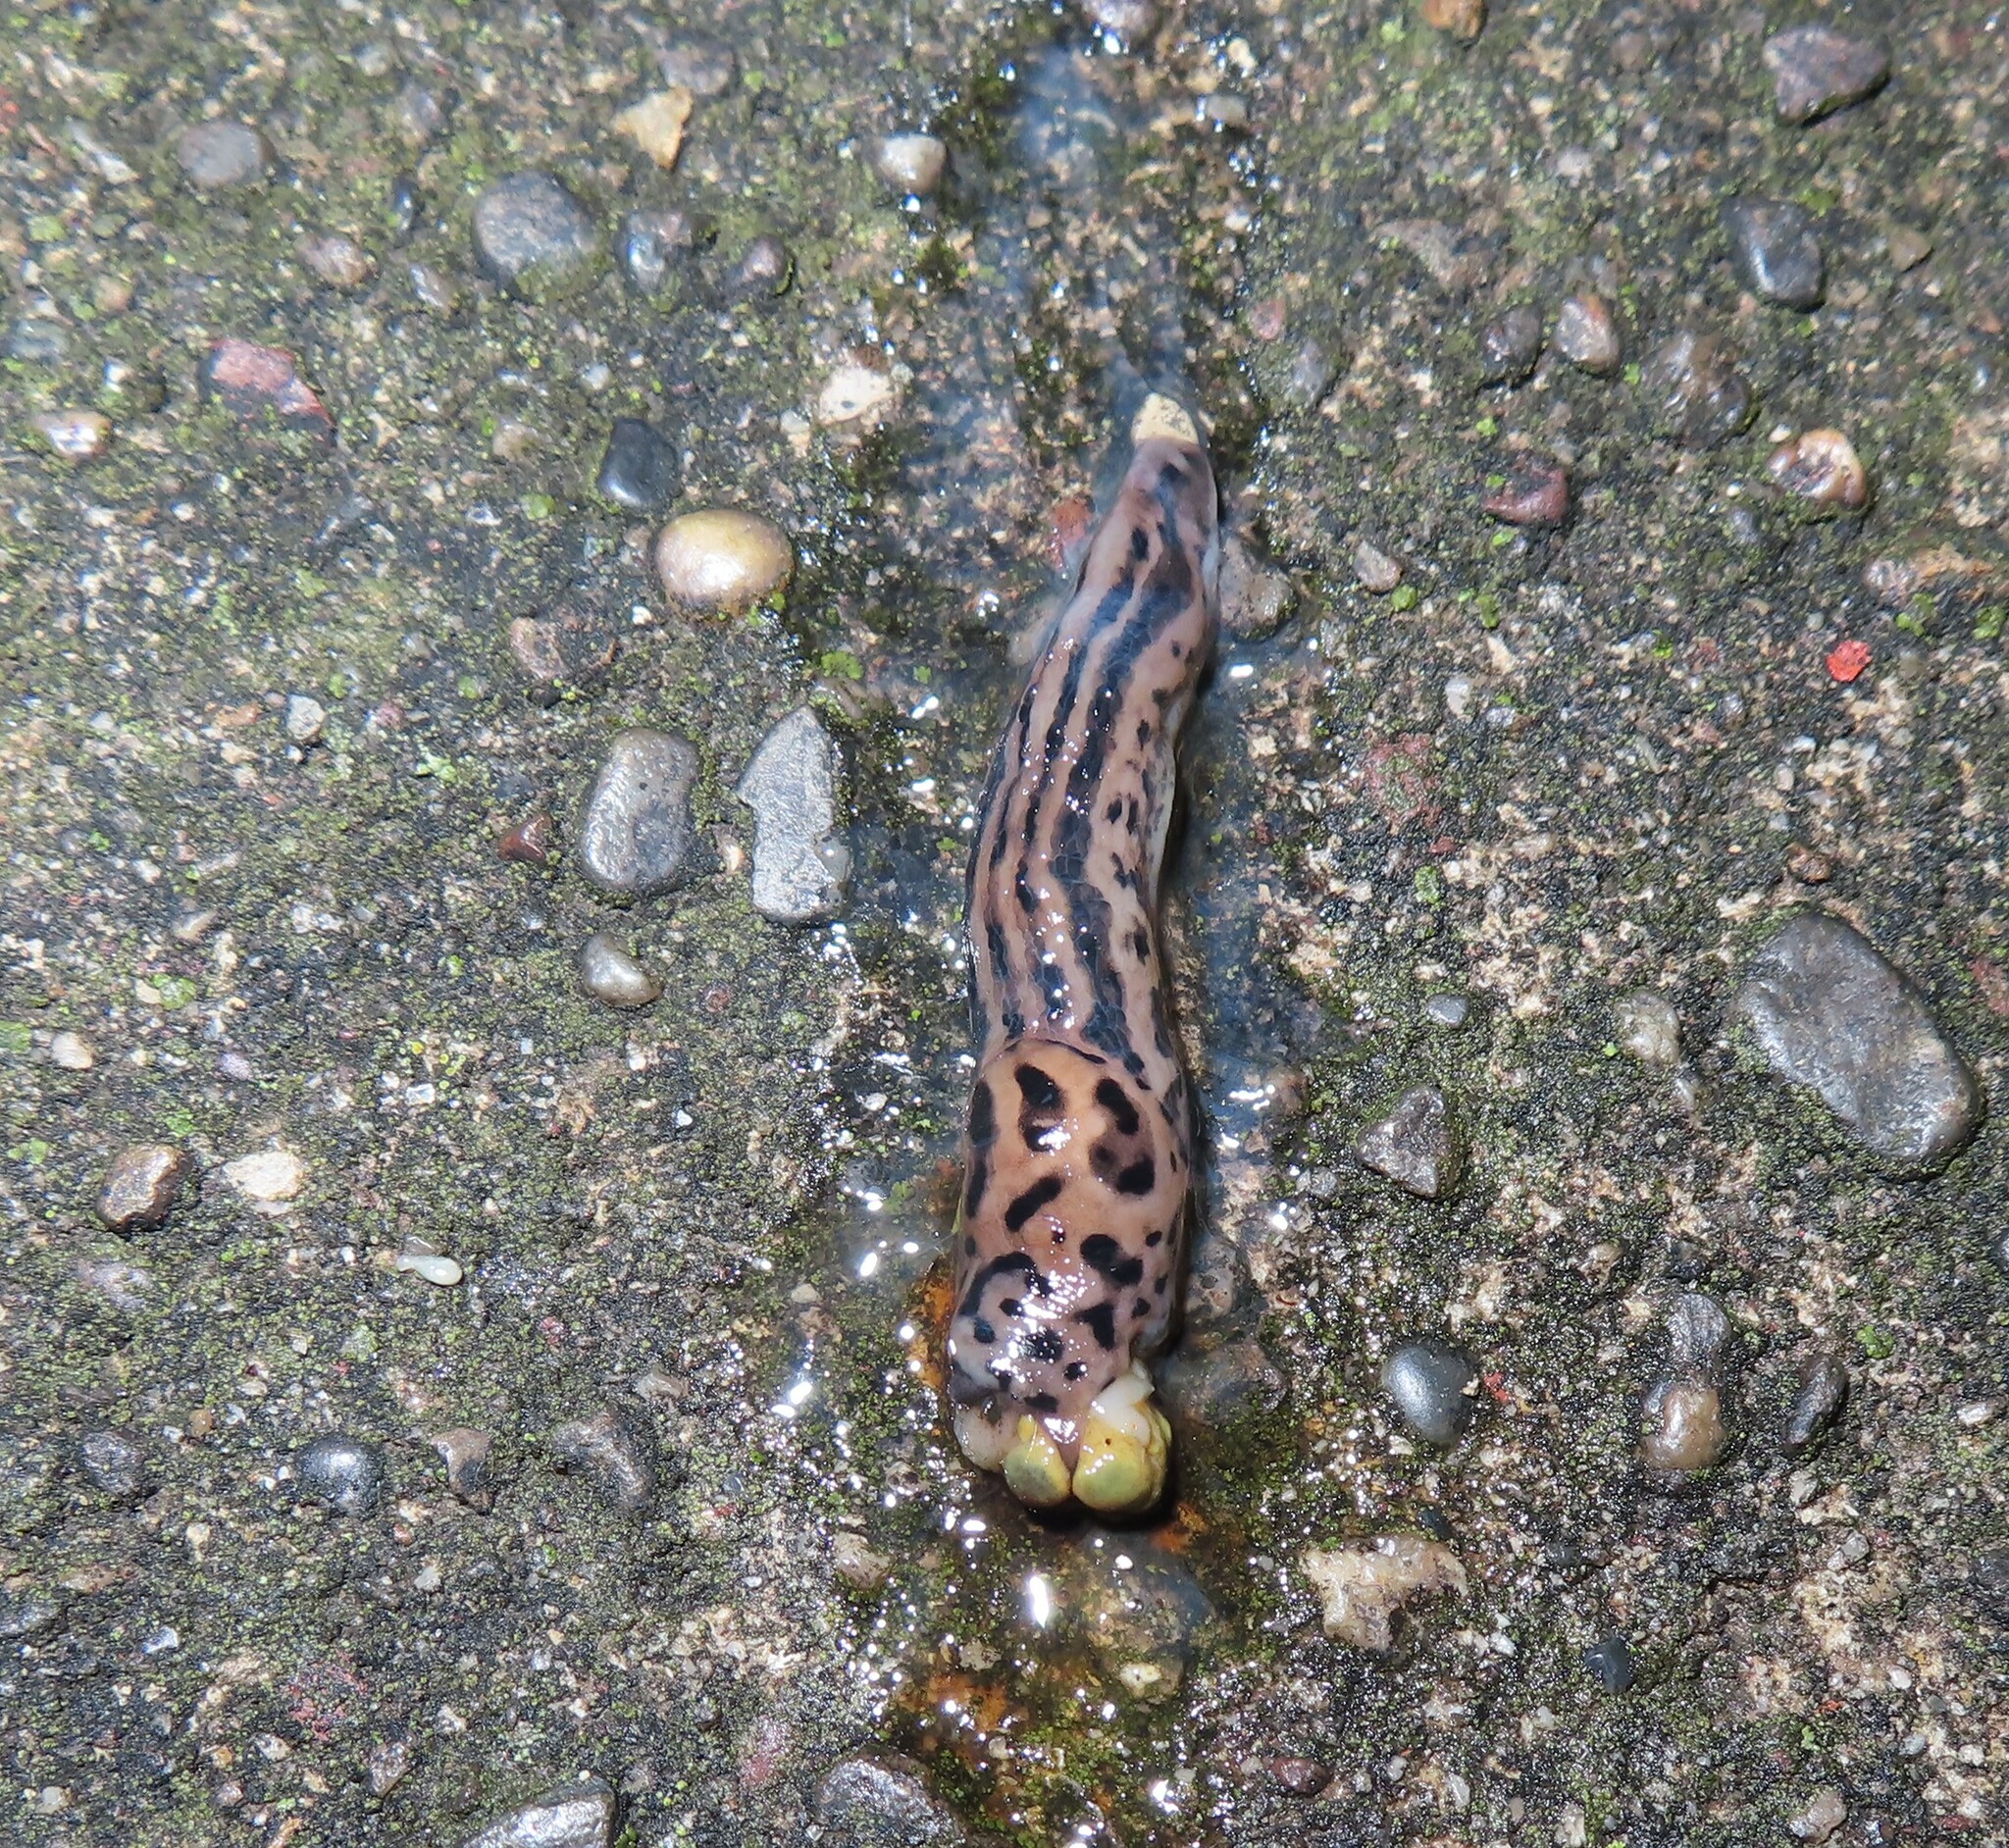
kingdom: Animalia
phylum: Mollusca
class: Gastropoda
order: Stylommatophora
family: Limacidae
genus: Limax
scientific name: Limax maximus
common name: Great grey slug
